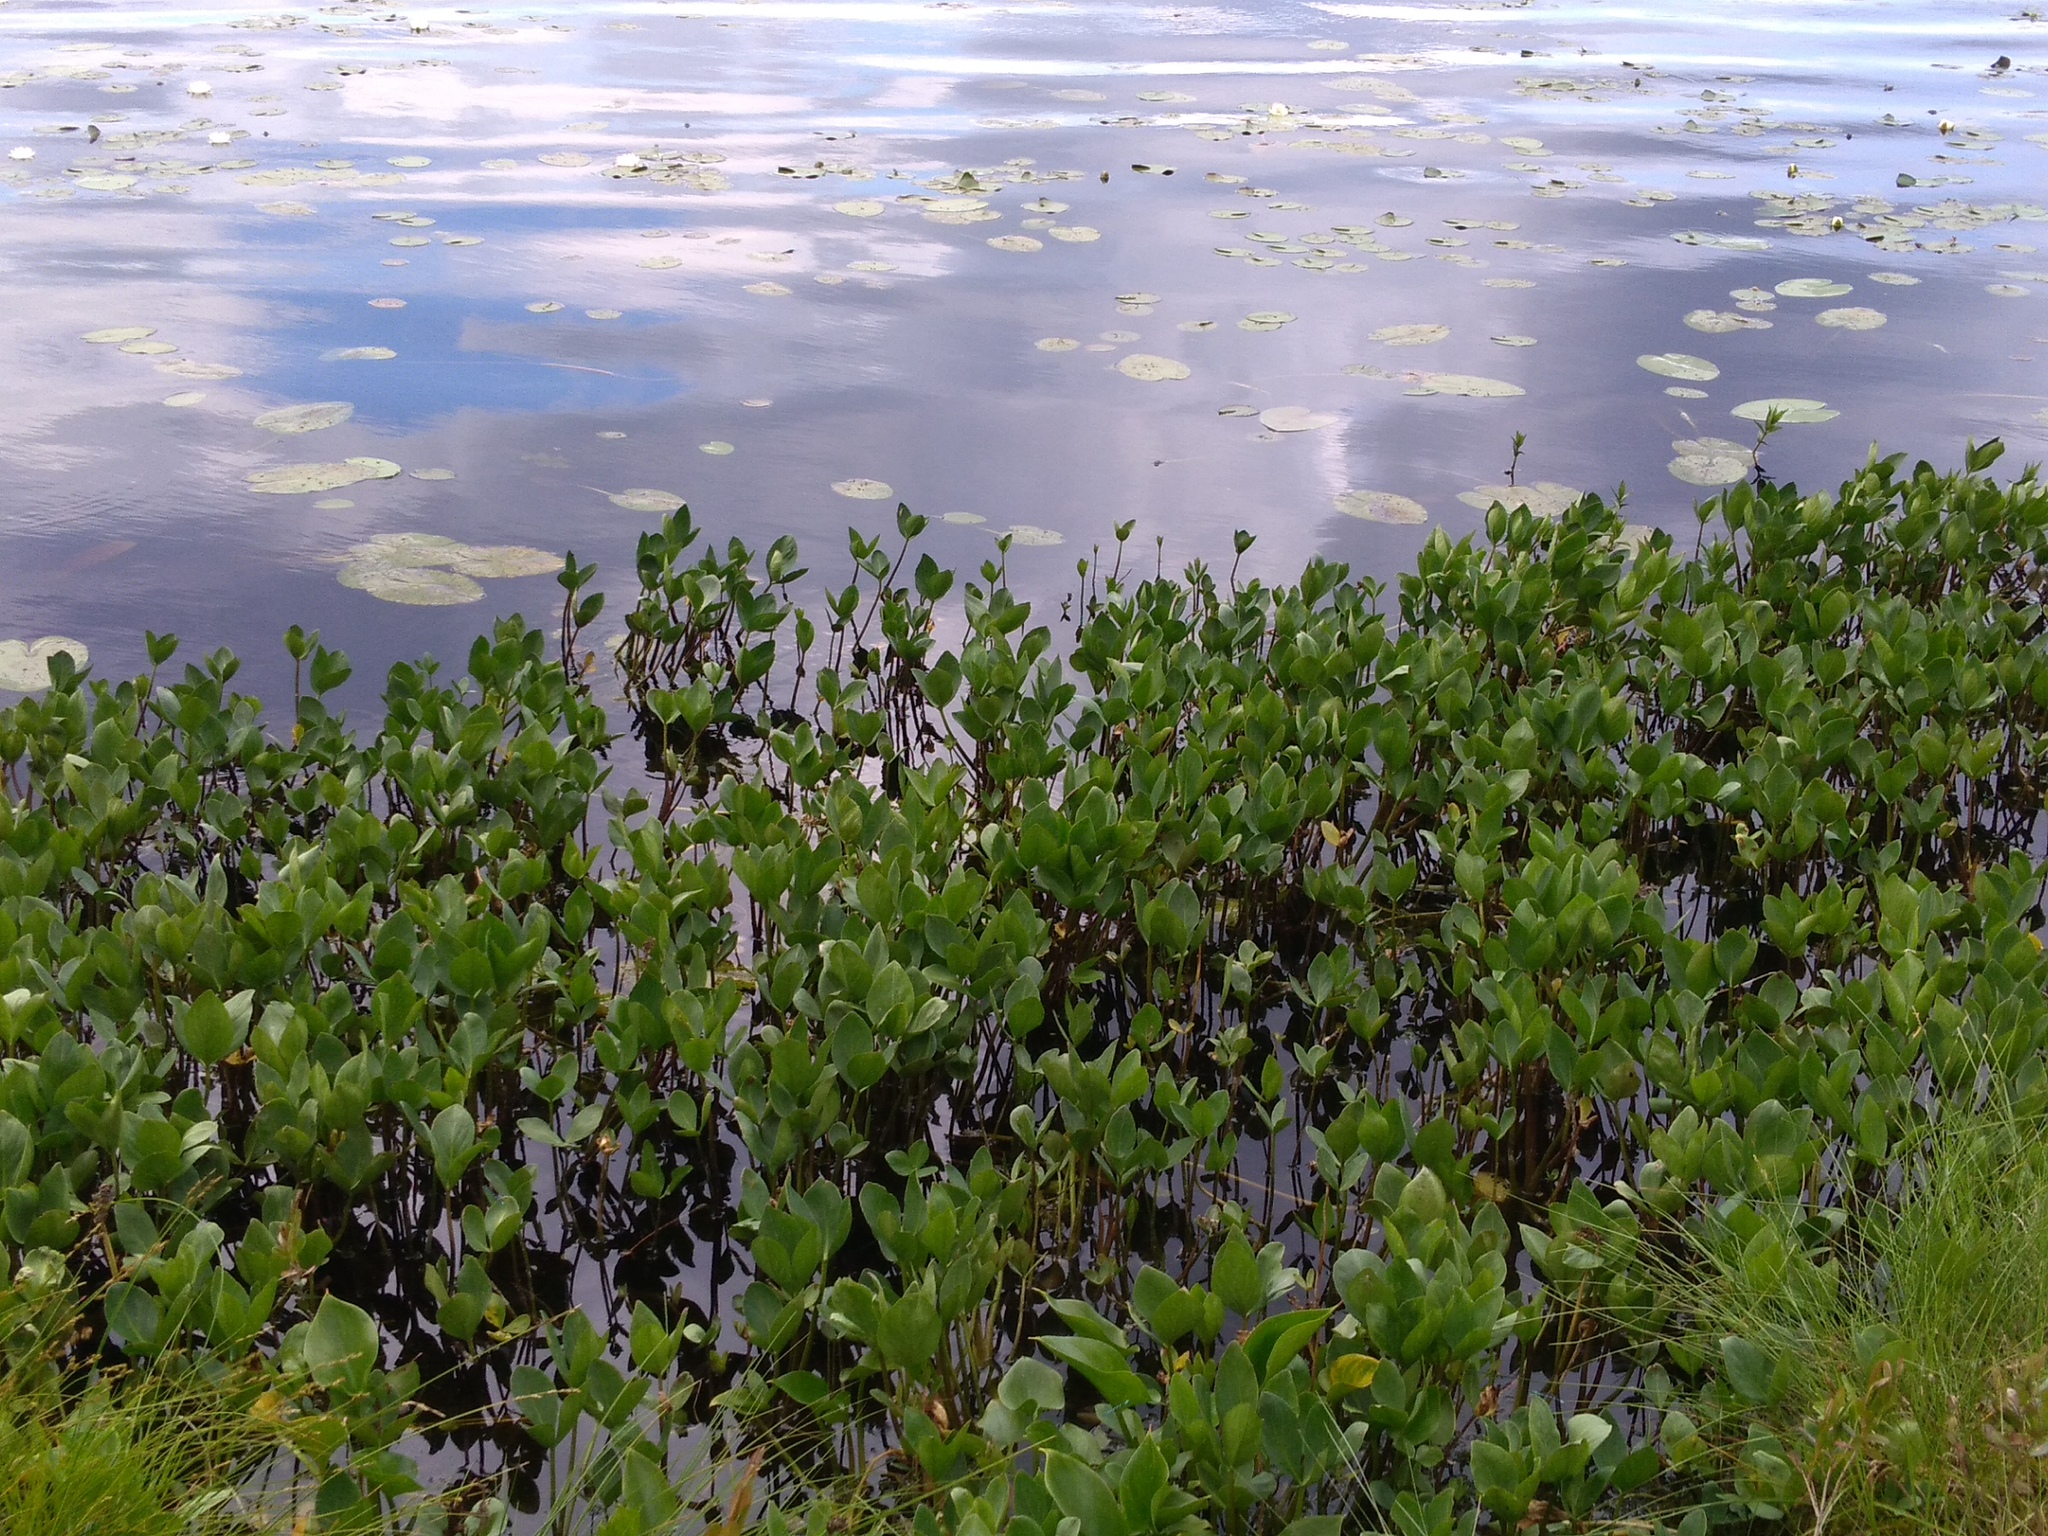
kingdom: Plantae
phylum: Tracheophyta
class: Magnoliopsida
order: Asterales
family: Menyanthaceae
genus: Menyanthes
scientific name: Menyanthes trifoliata
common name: Bogbean
